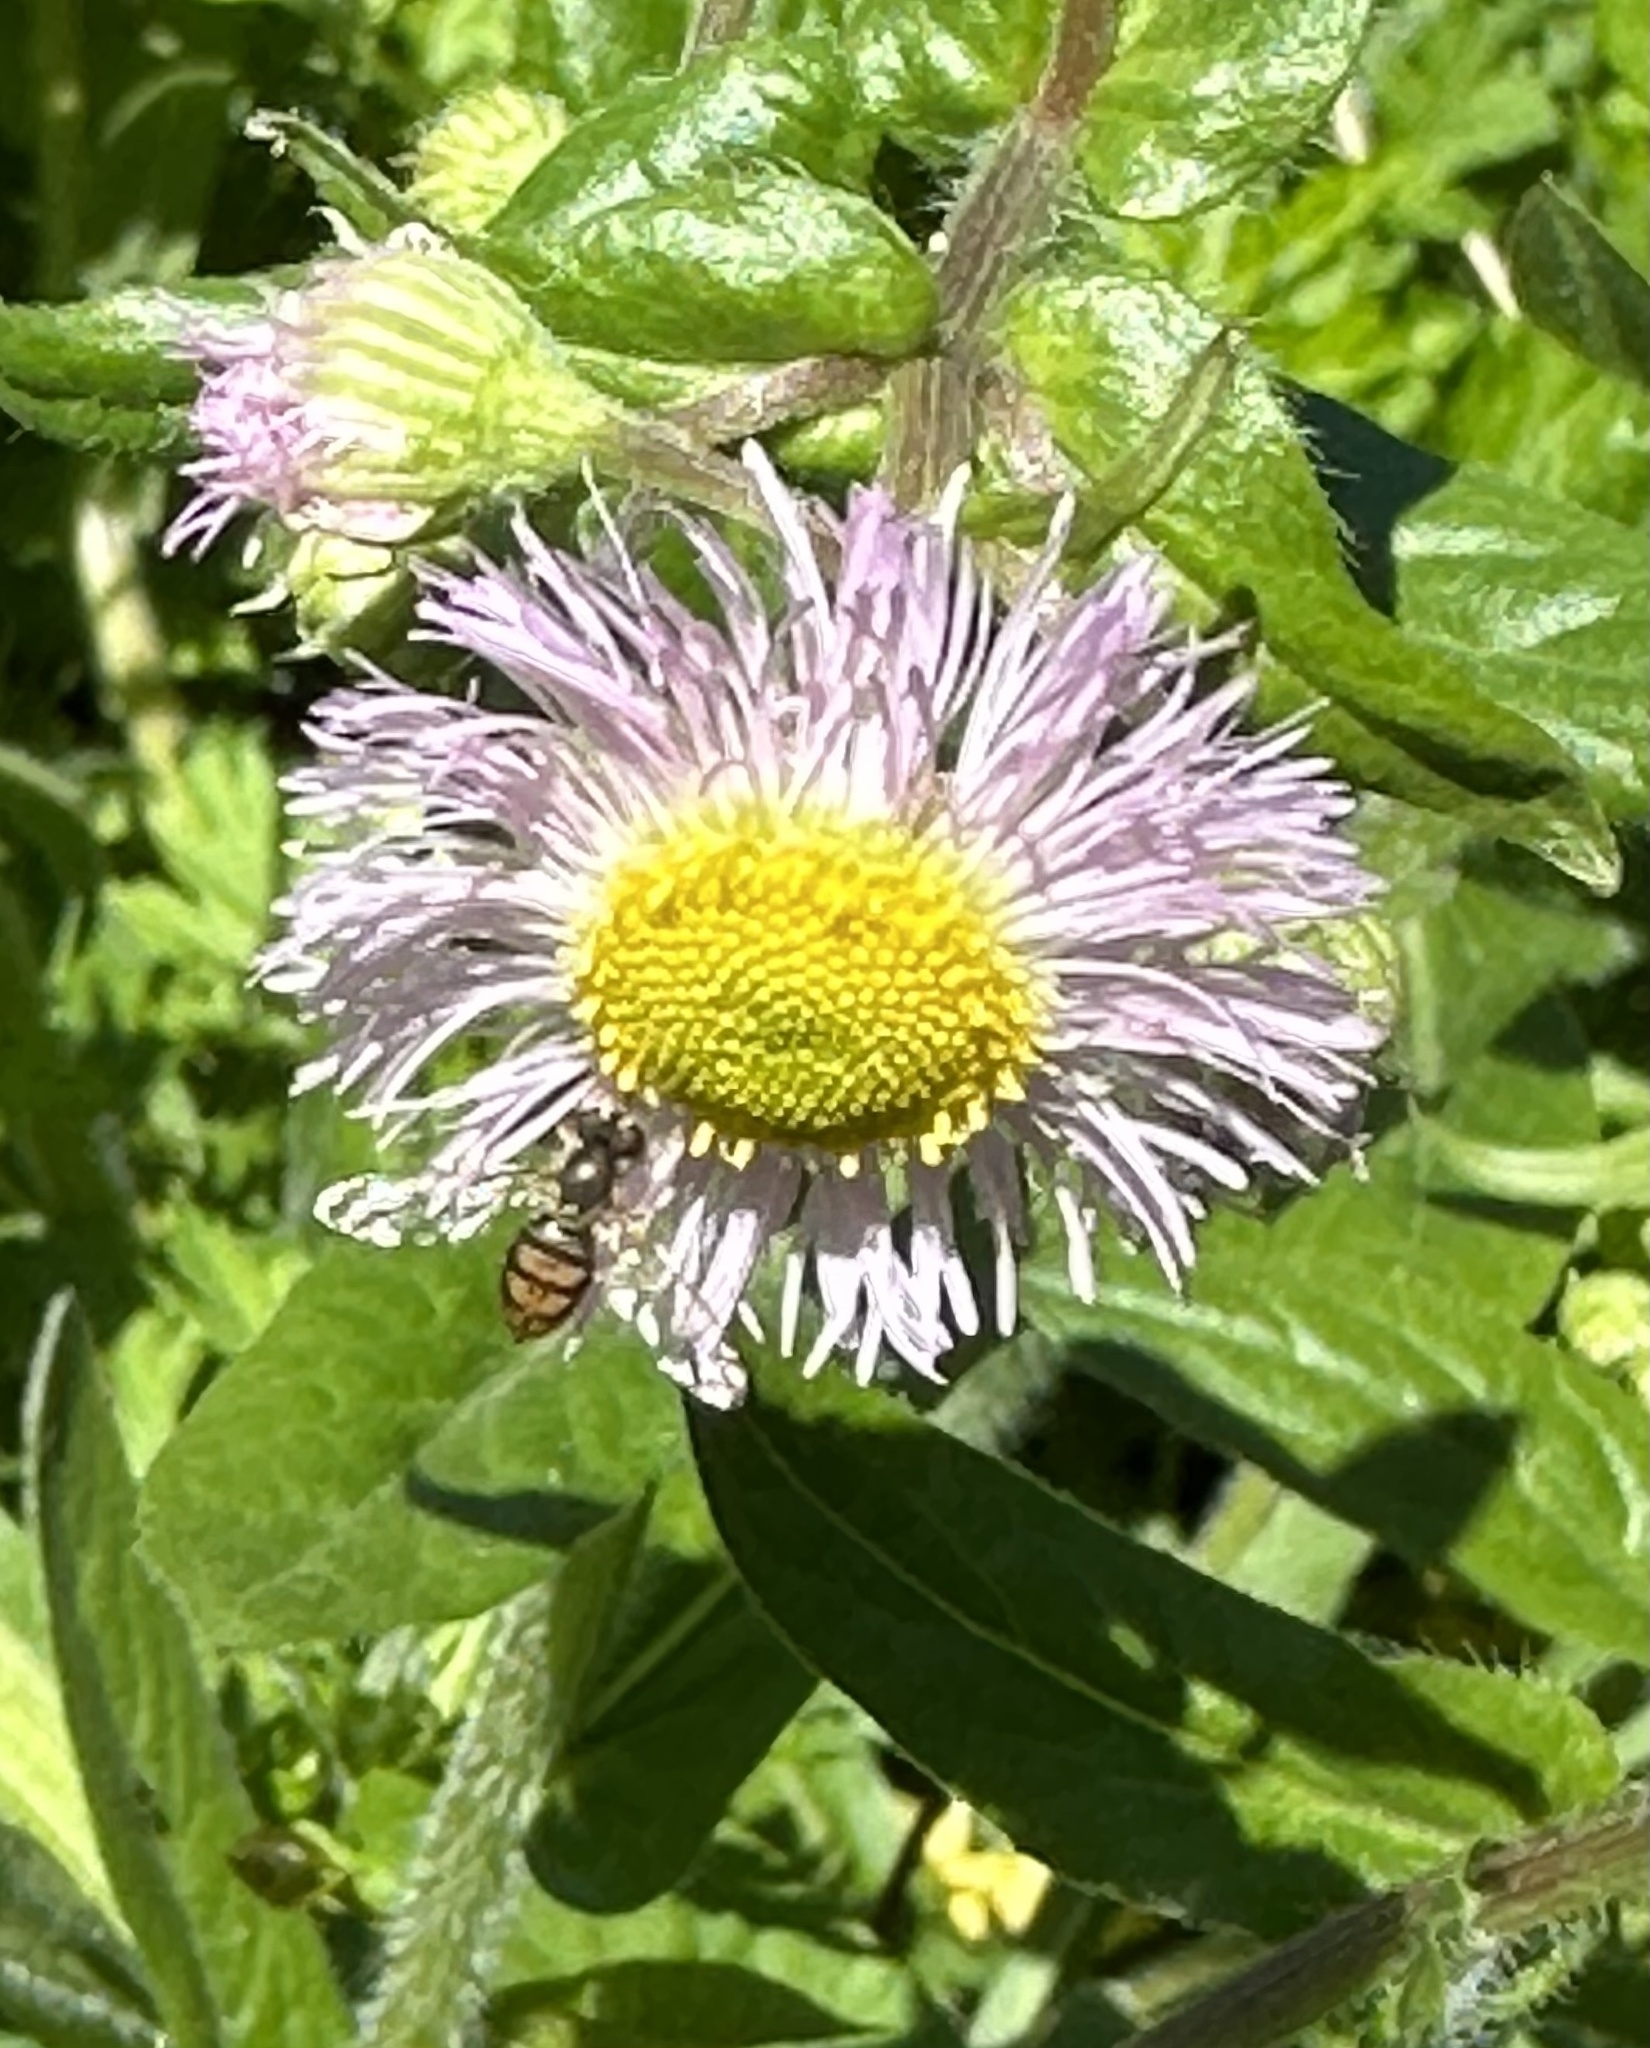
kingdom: Animalia
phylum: Arthropoda
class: Insecta
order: Diptera
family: Syrphidae
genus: Toxomerus
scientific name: Toxomerus marginatus
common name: Syrphid fly
